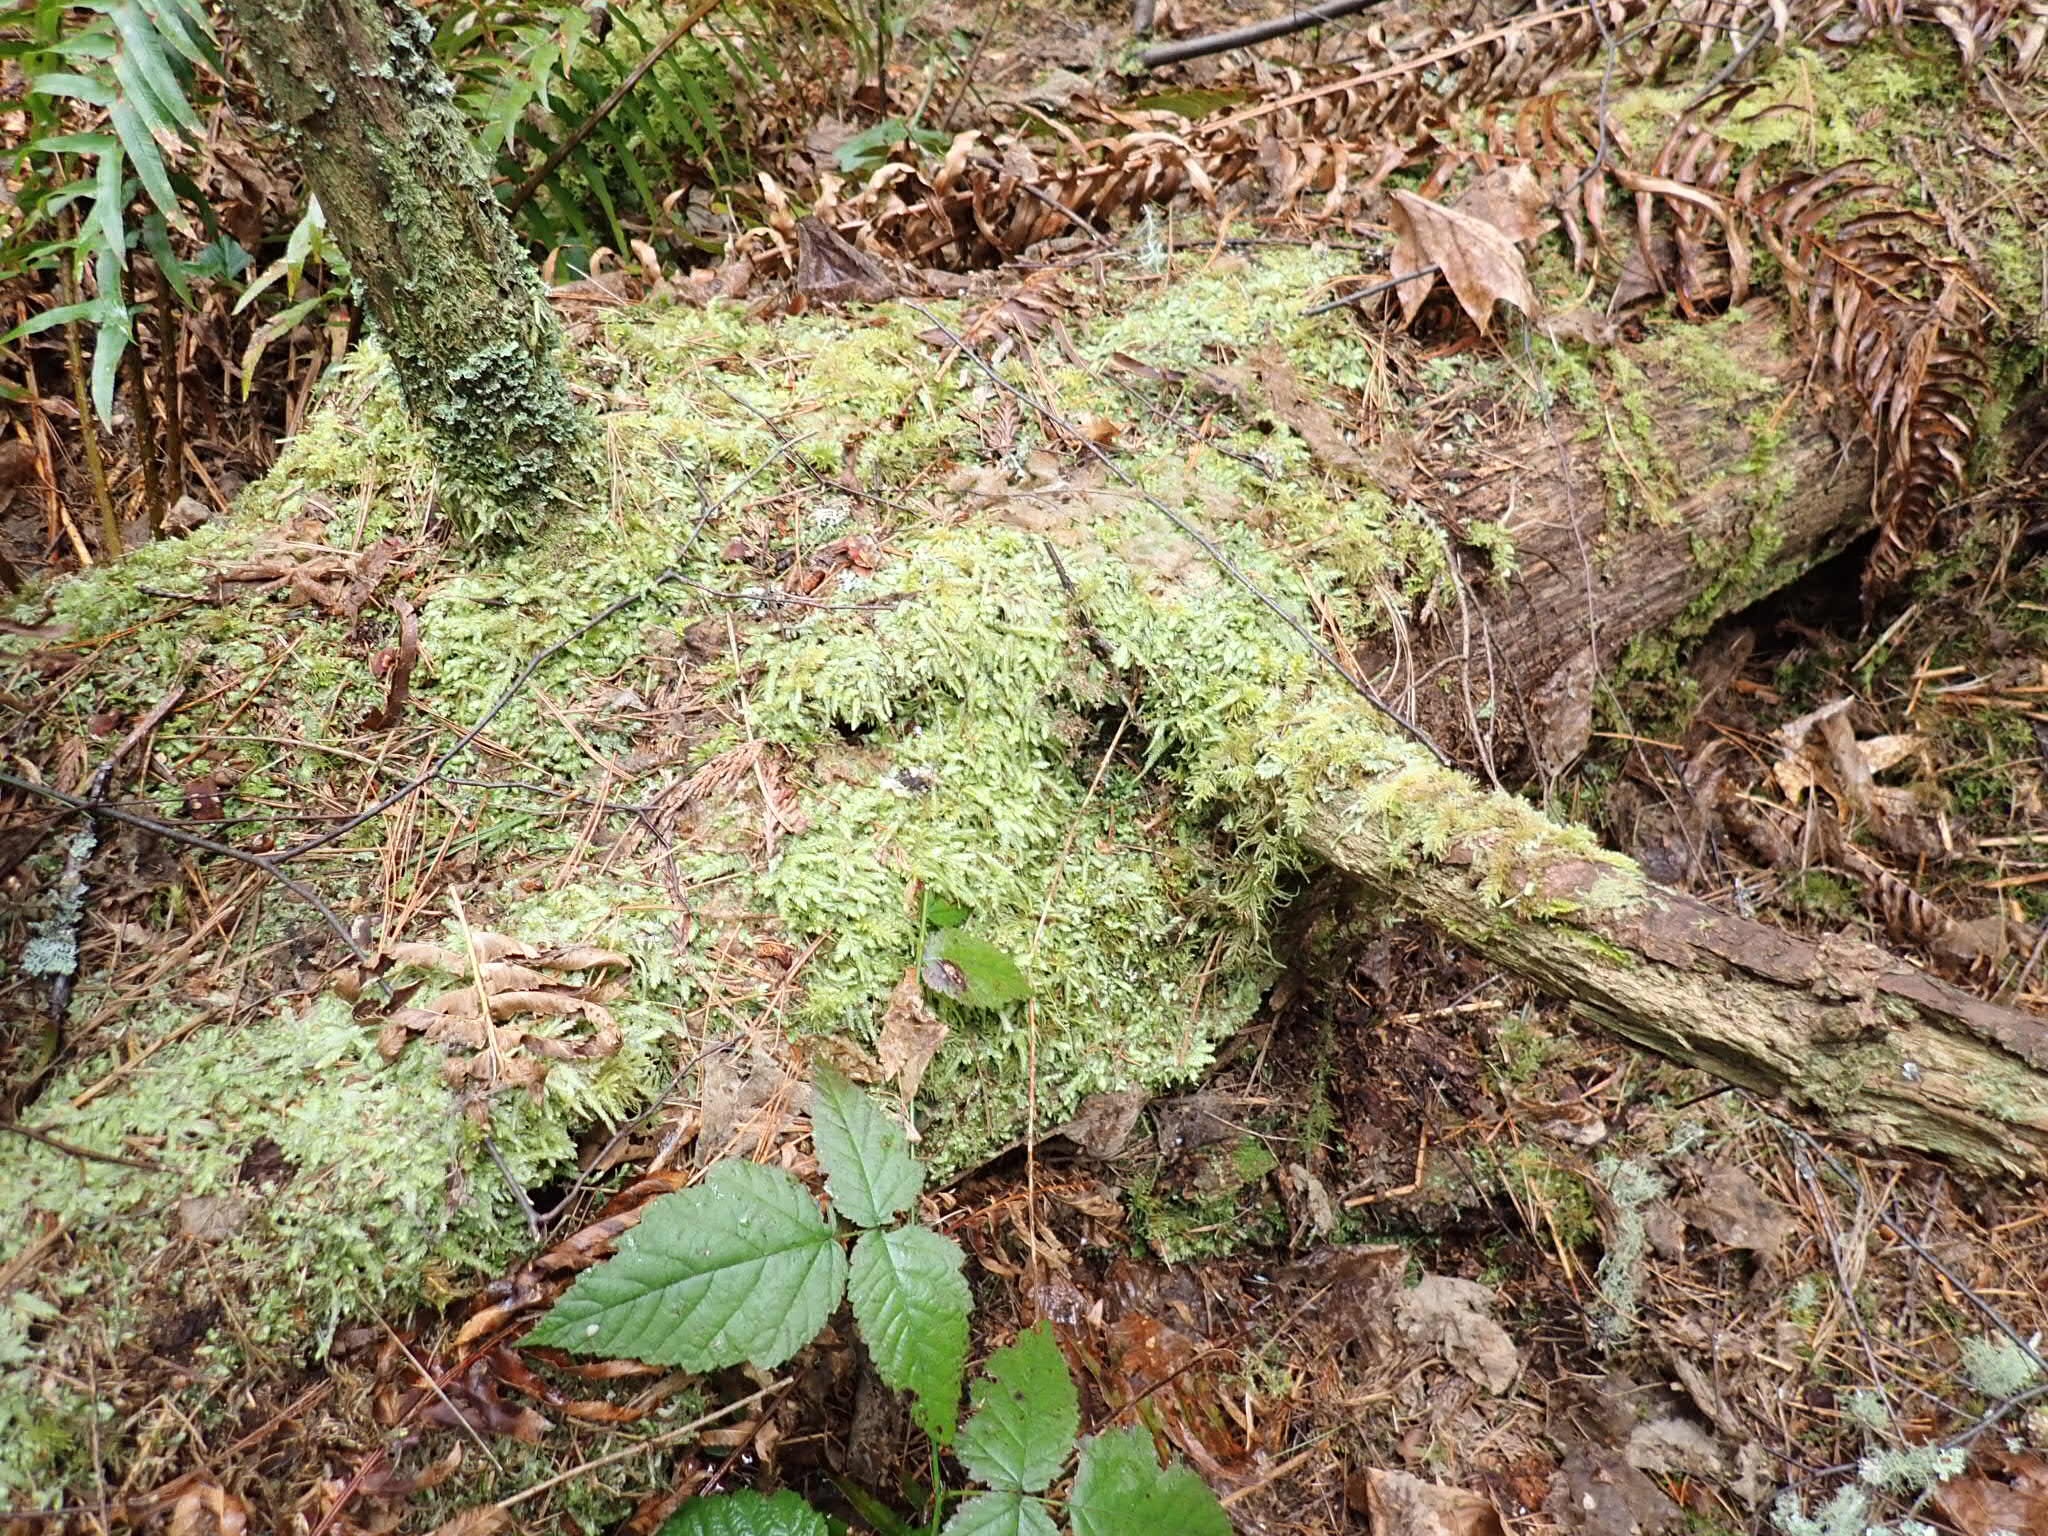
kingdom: Plantae
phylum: Bryophyta
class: Bryopsida
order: Hypnales
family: Plagiotheciaceae
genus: Plagiothecium
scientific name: Plagiothecium undulatum
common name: Waved silk-moss
